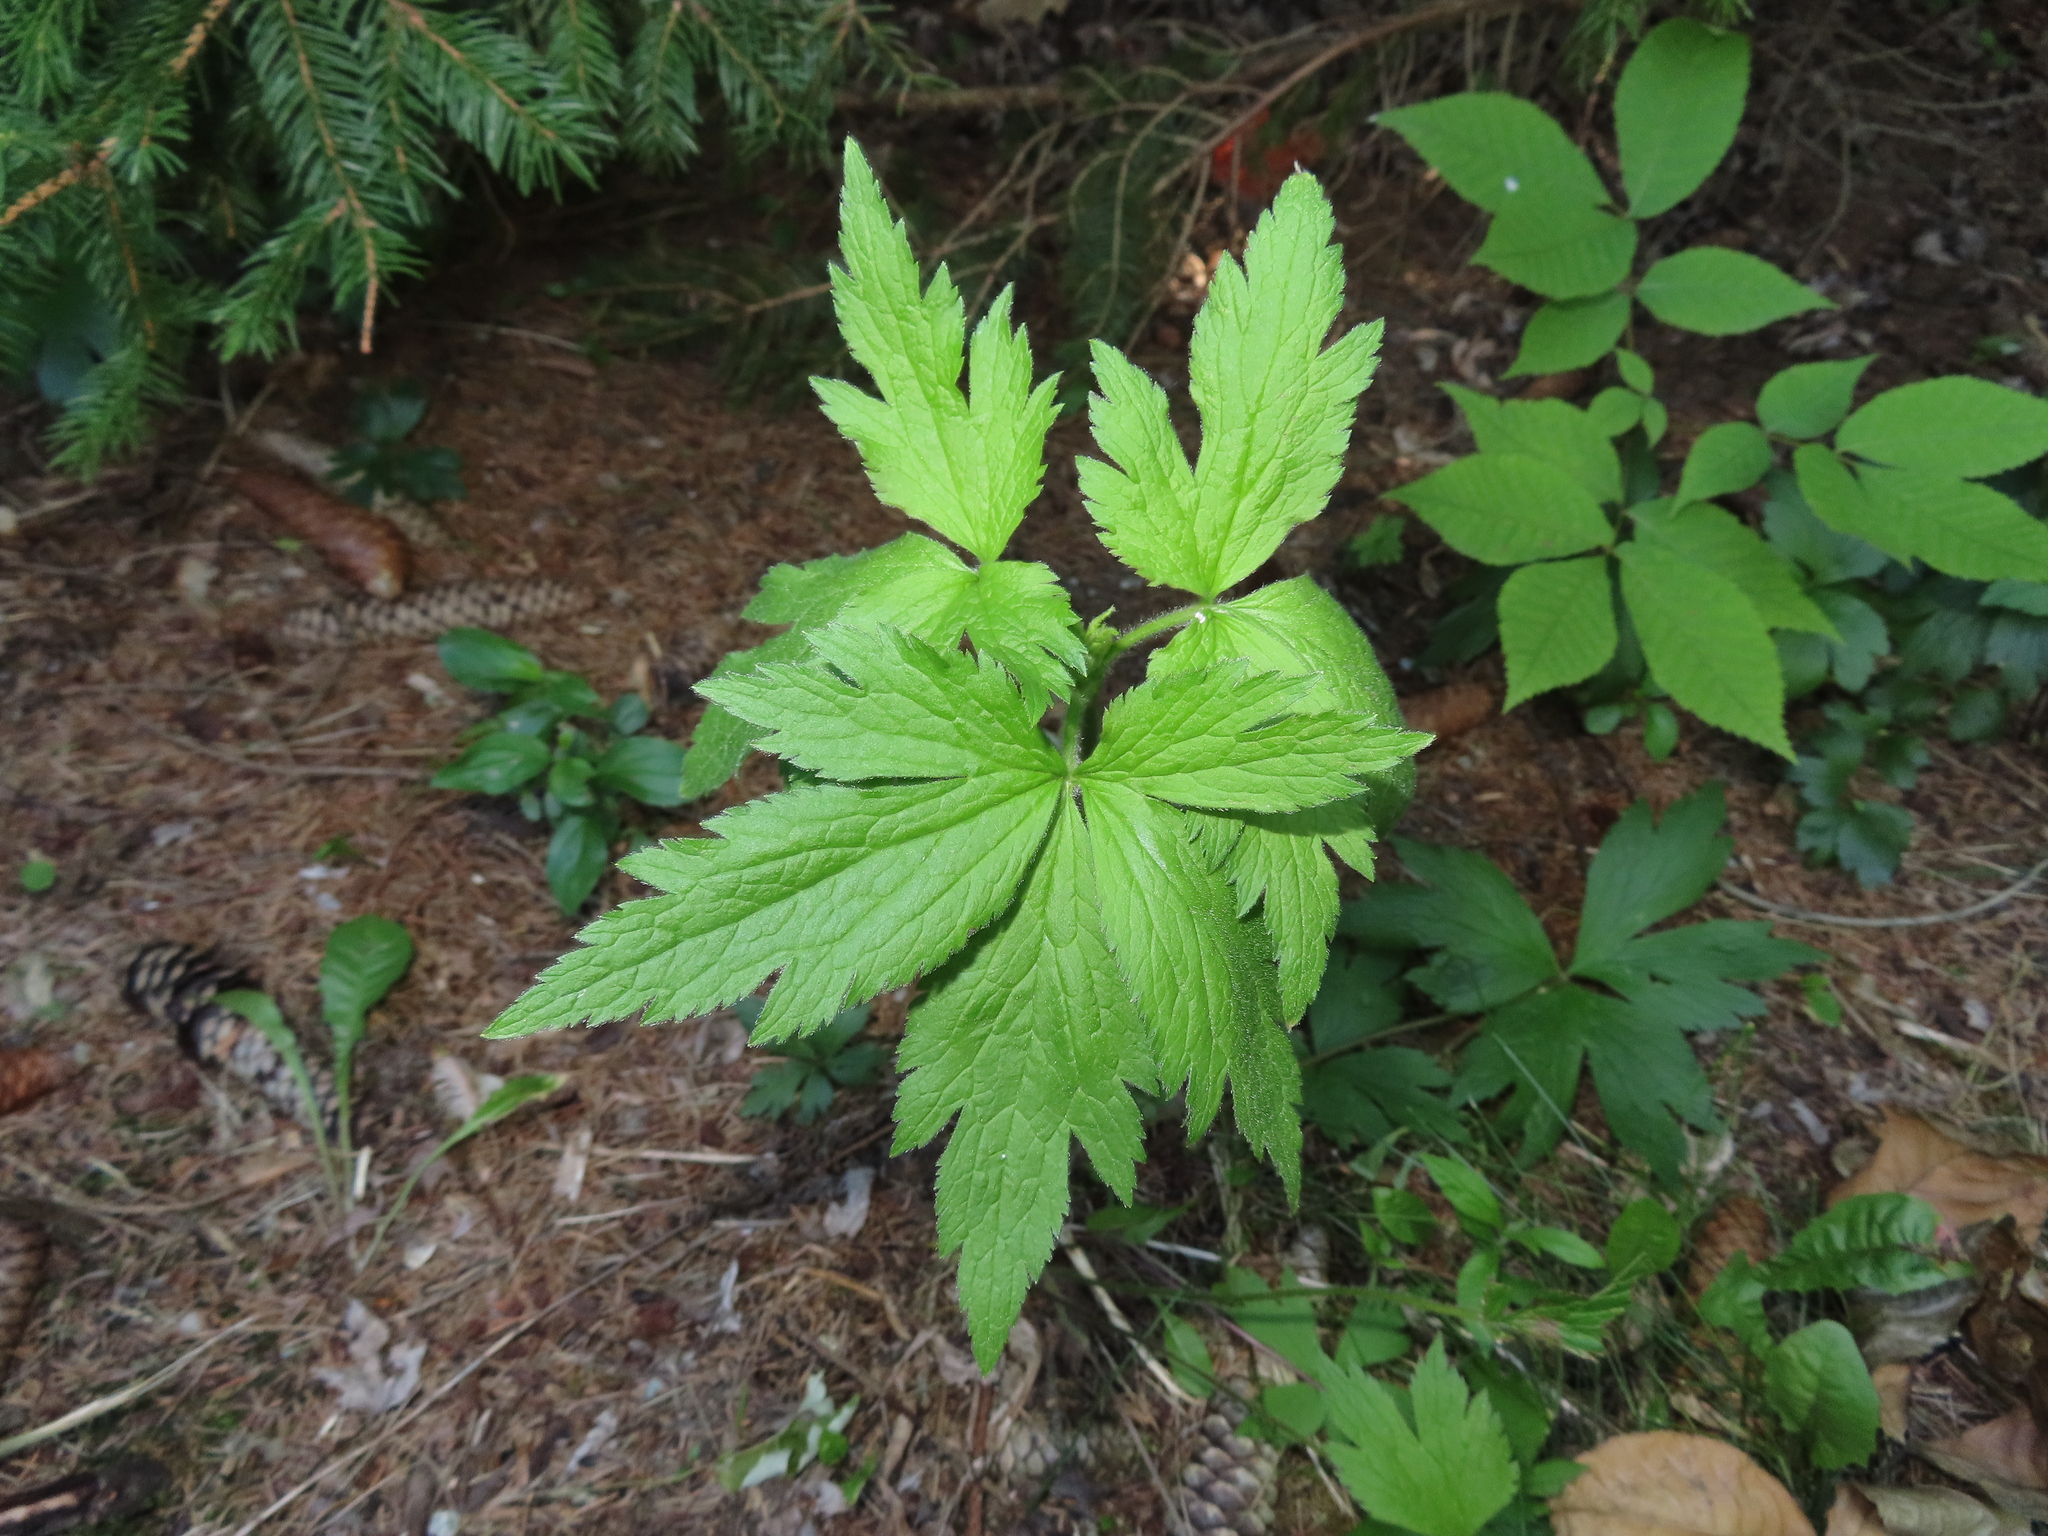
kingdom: Plantae
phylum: Tracheophyta
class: Magnoliopsida
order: Ranunculales
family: Ranunculaceae
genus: Anemone
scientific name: Anemone virginiana
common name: Tall anemone
